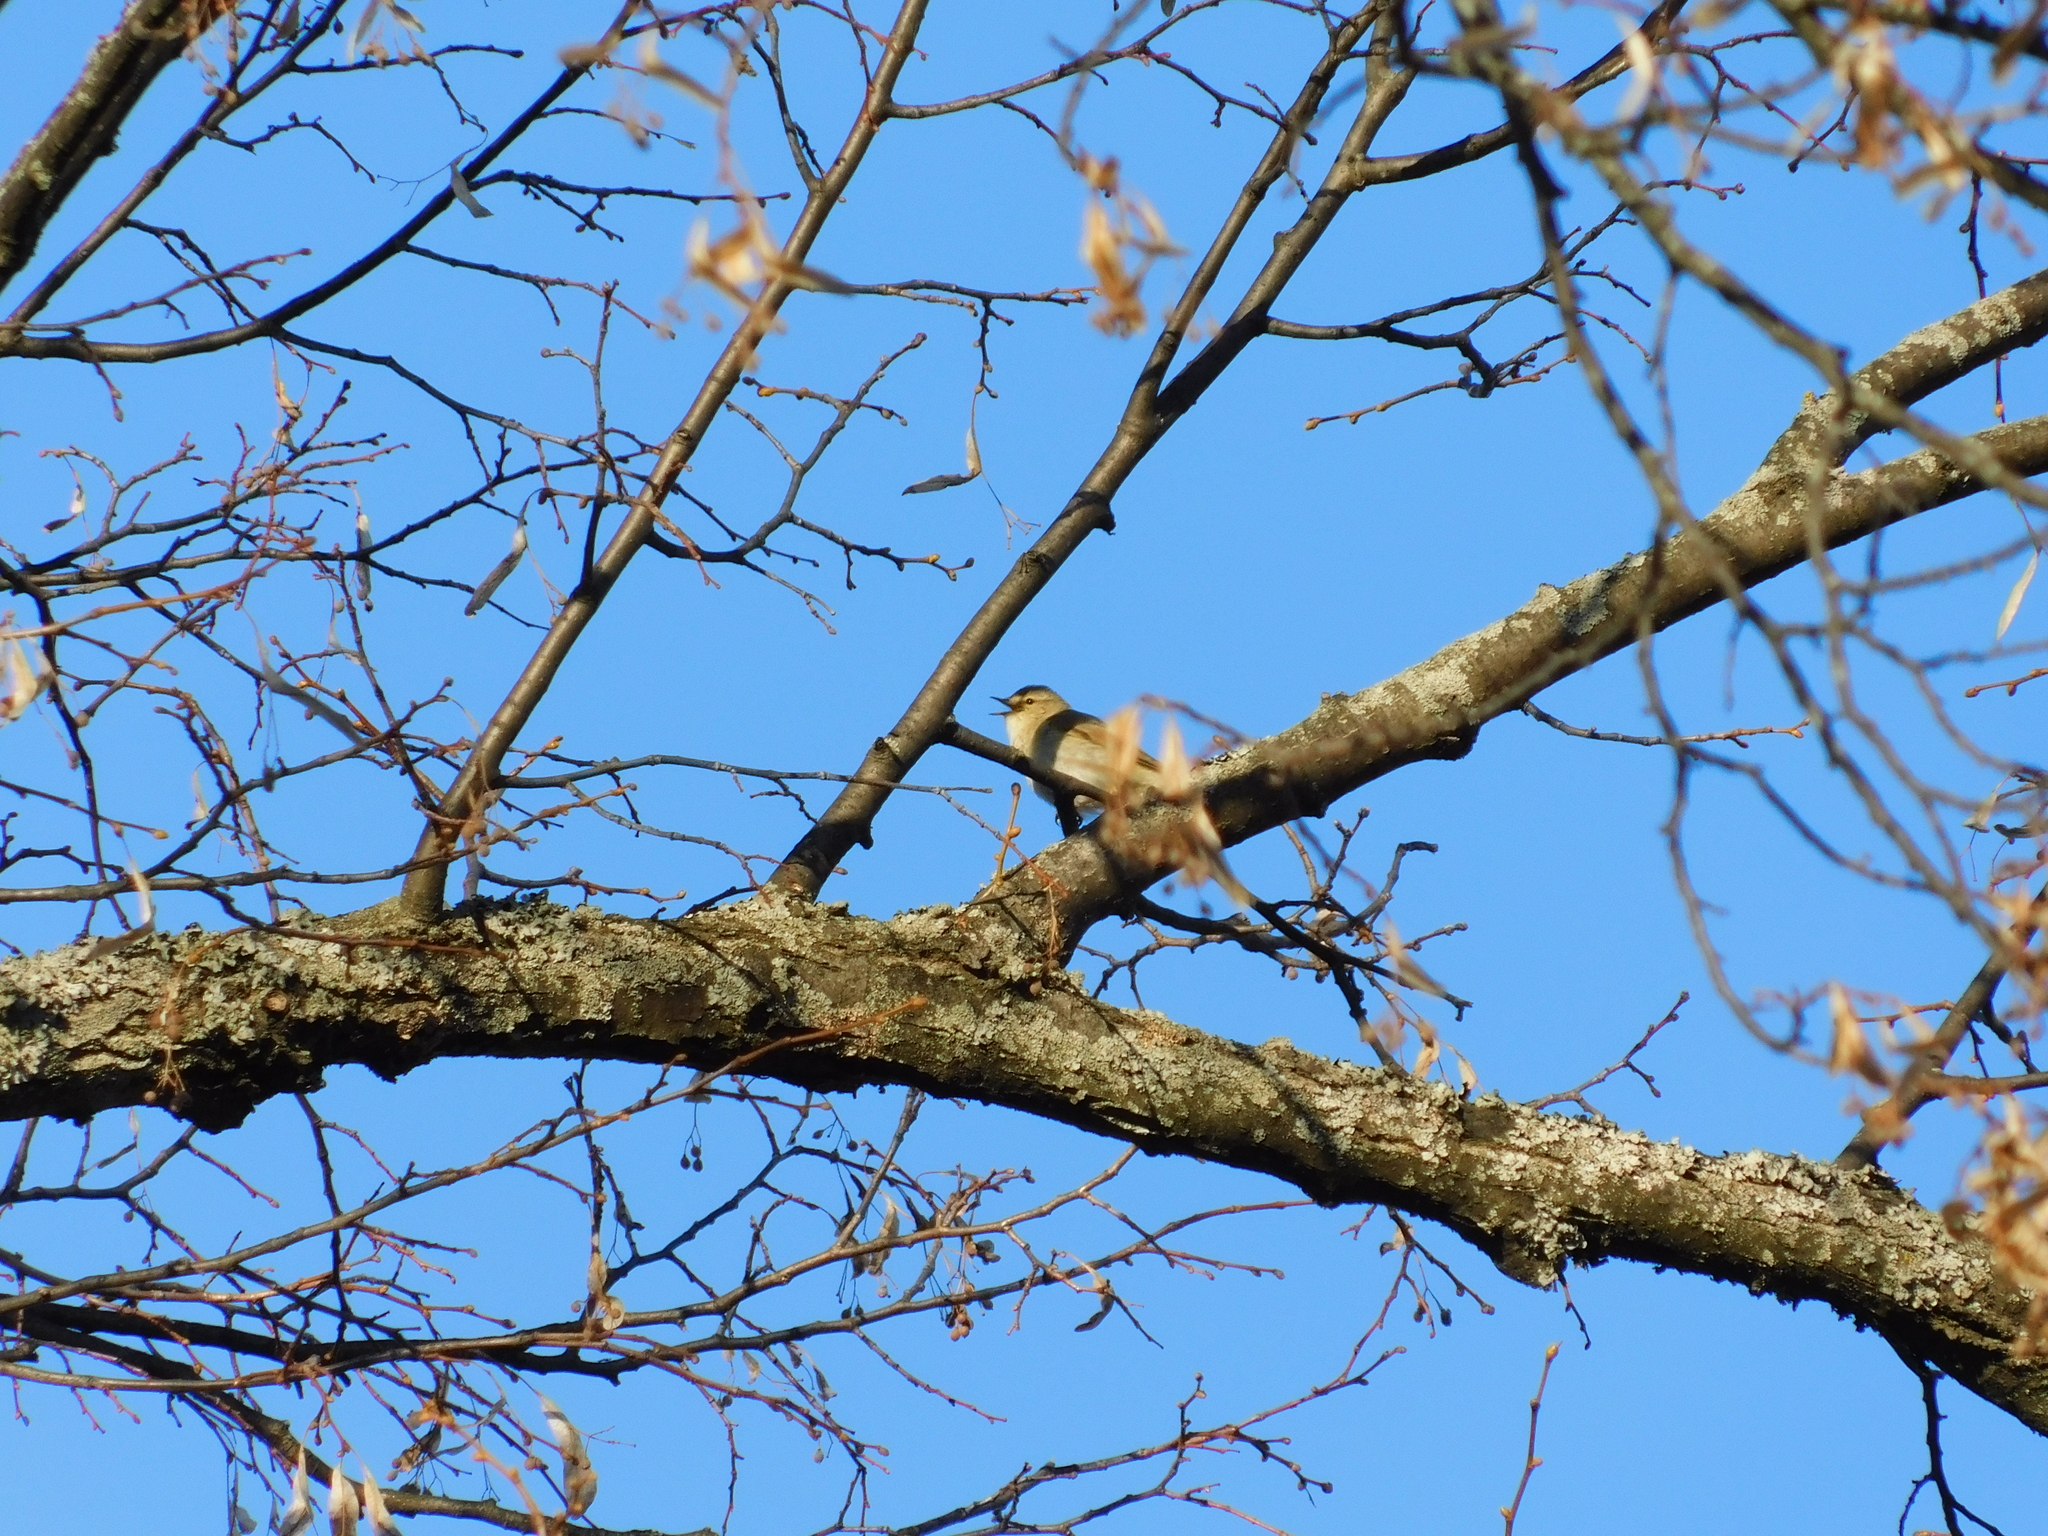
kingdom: Animalia
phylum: Chordata
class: Aves
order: Passeriformes
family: Phylloscopidae
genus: Phylloscopus
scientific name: Phylloscopus collybita
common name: Common chiffchaff
